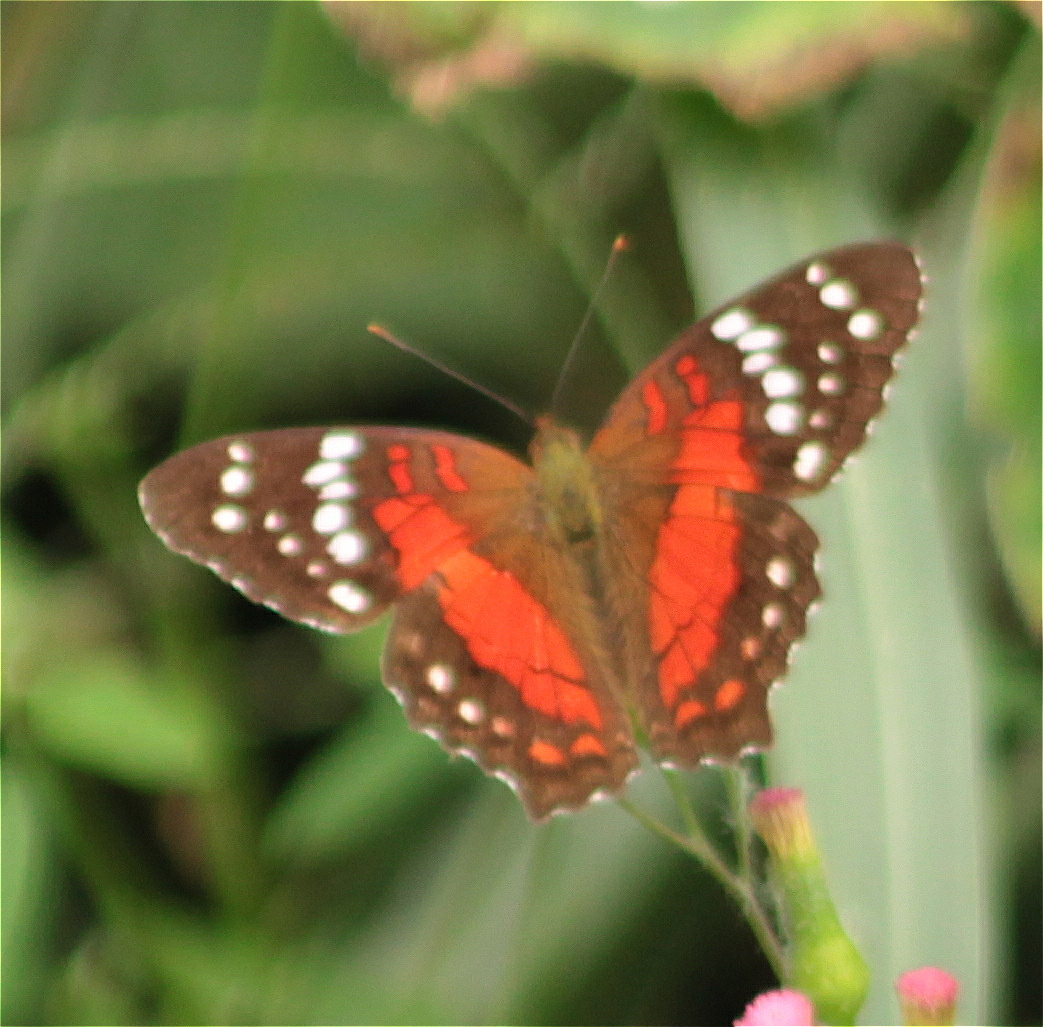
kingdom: Animalia
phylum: Arthropoda
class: Insecta
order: Lepidoptera
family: Nymphalidae
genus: Anartia
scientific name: Anartia amathea
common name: Red peacock
